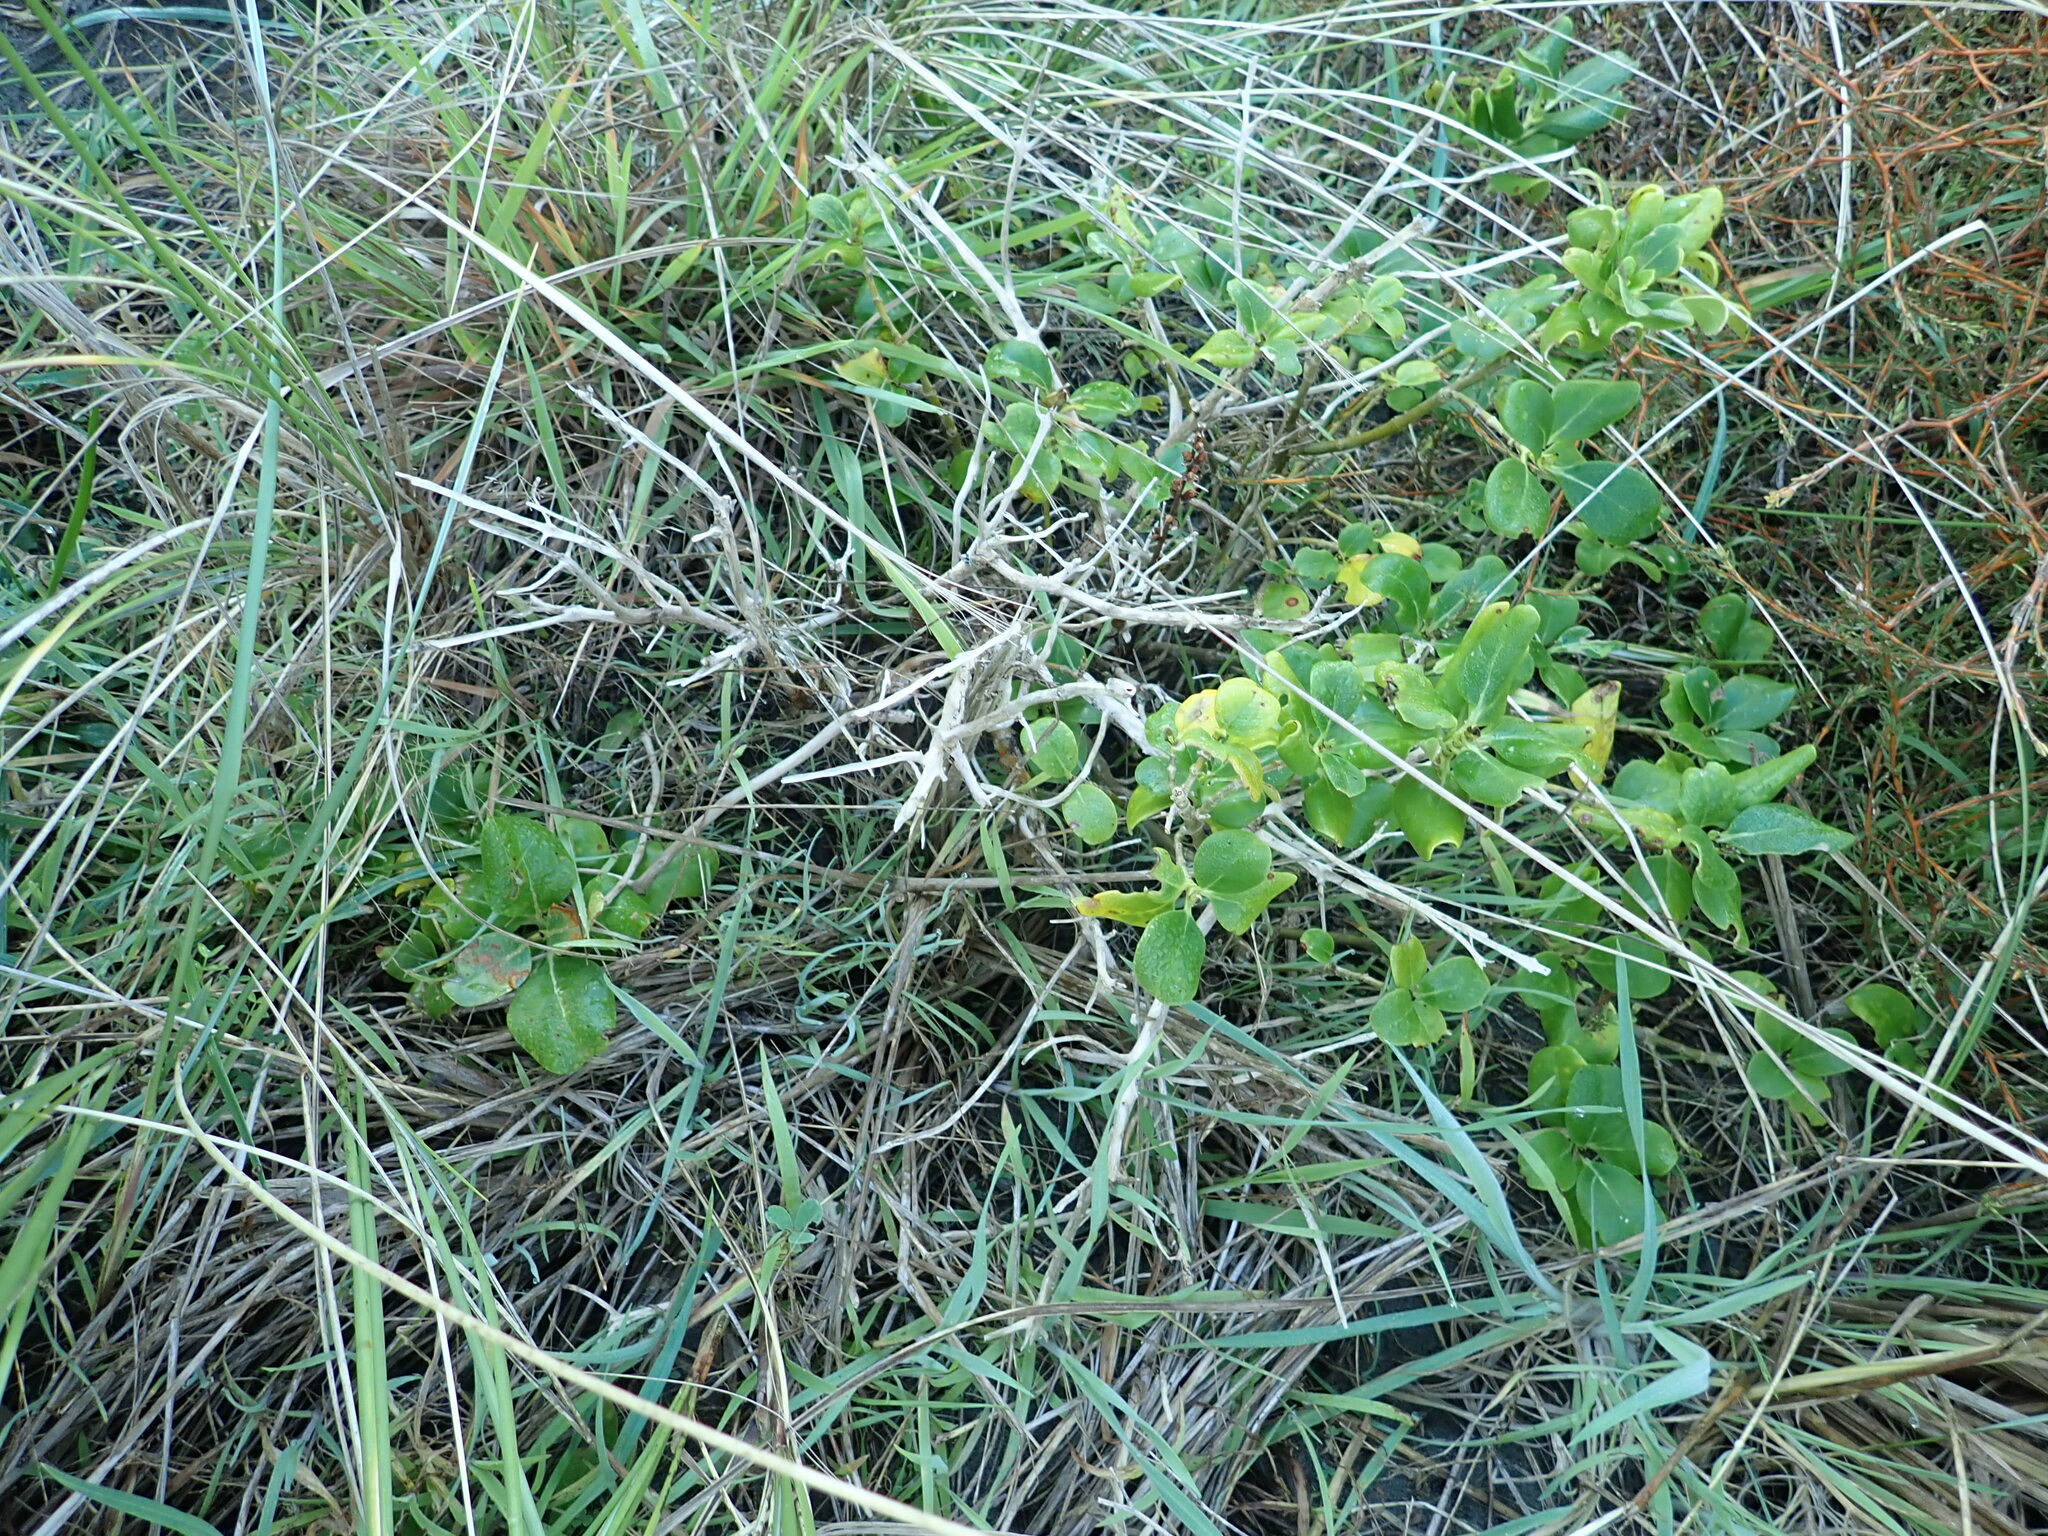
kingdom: Plantae
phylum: Tracheophyta
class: Magnoliopsida
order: Gentianales
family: Rubiaceae
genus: Coprosma
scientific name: Coprosma repens
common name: Tree bedstraw
